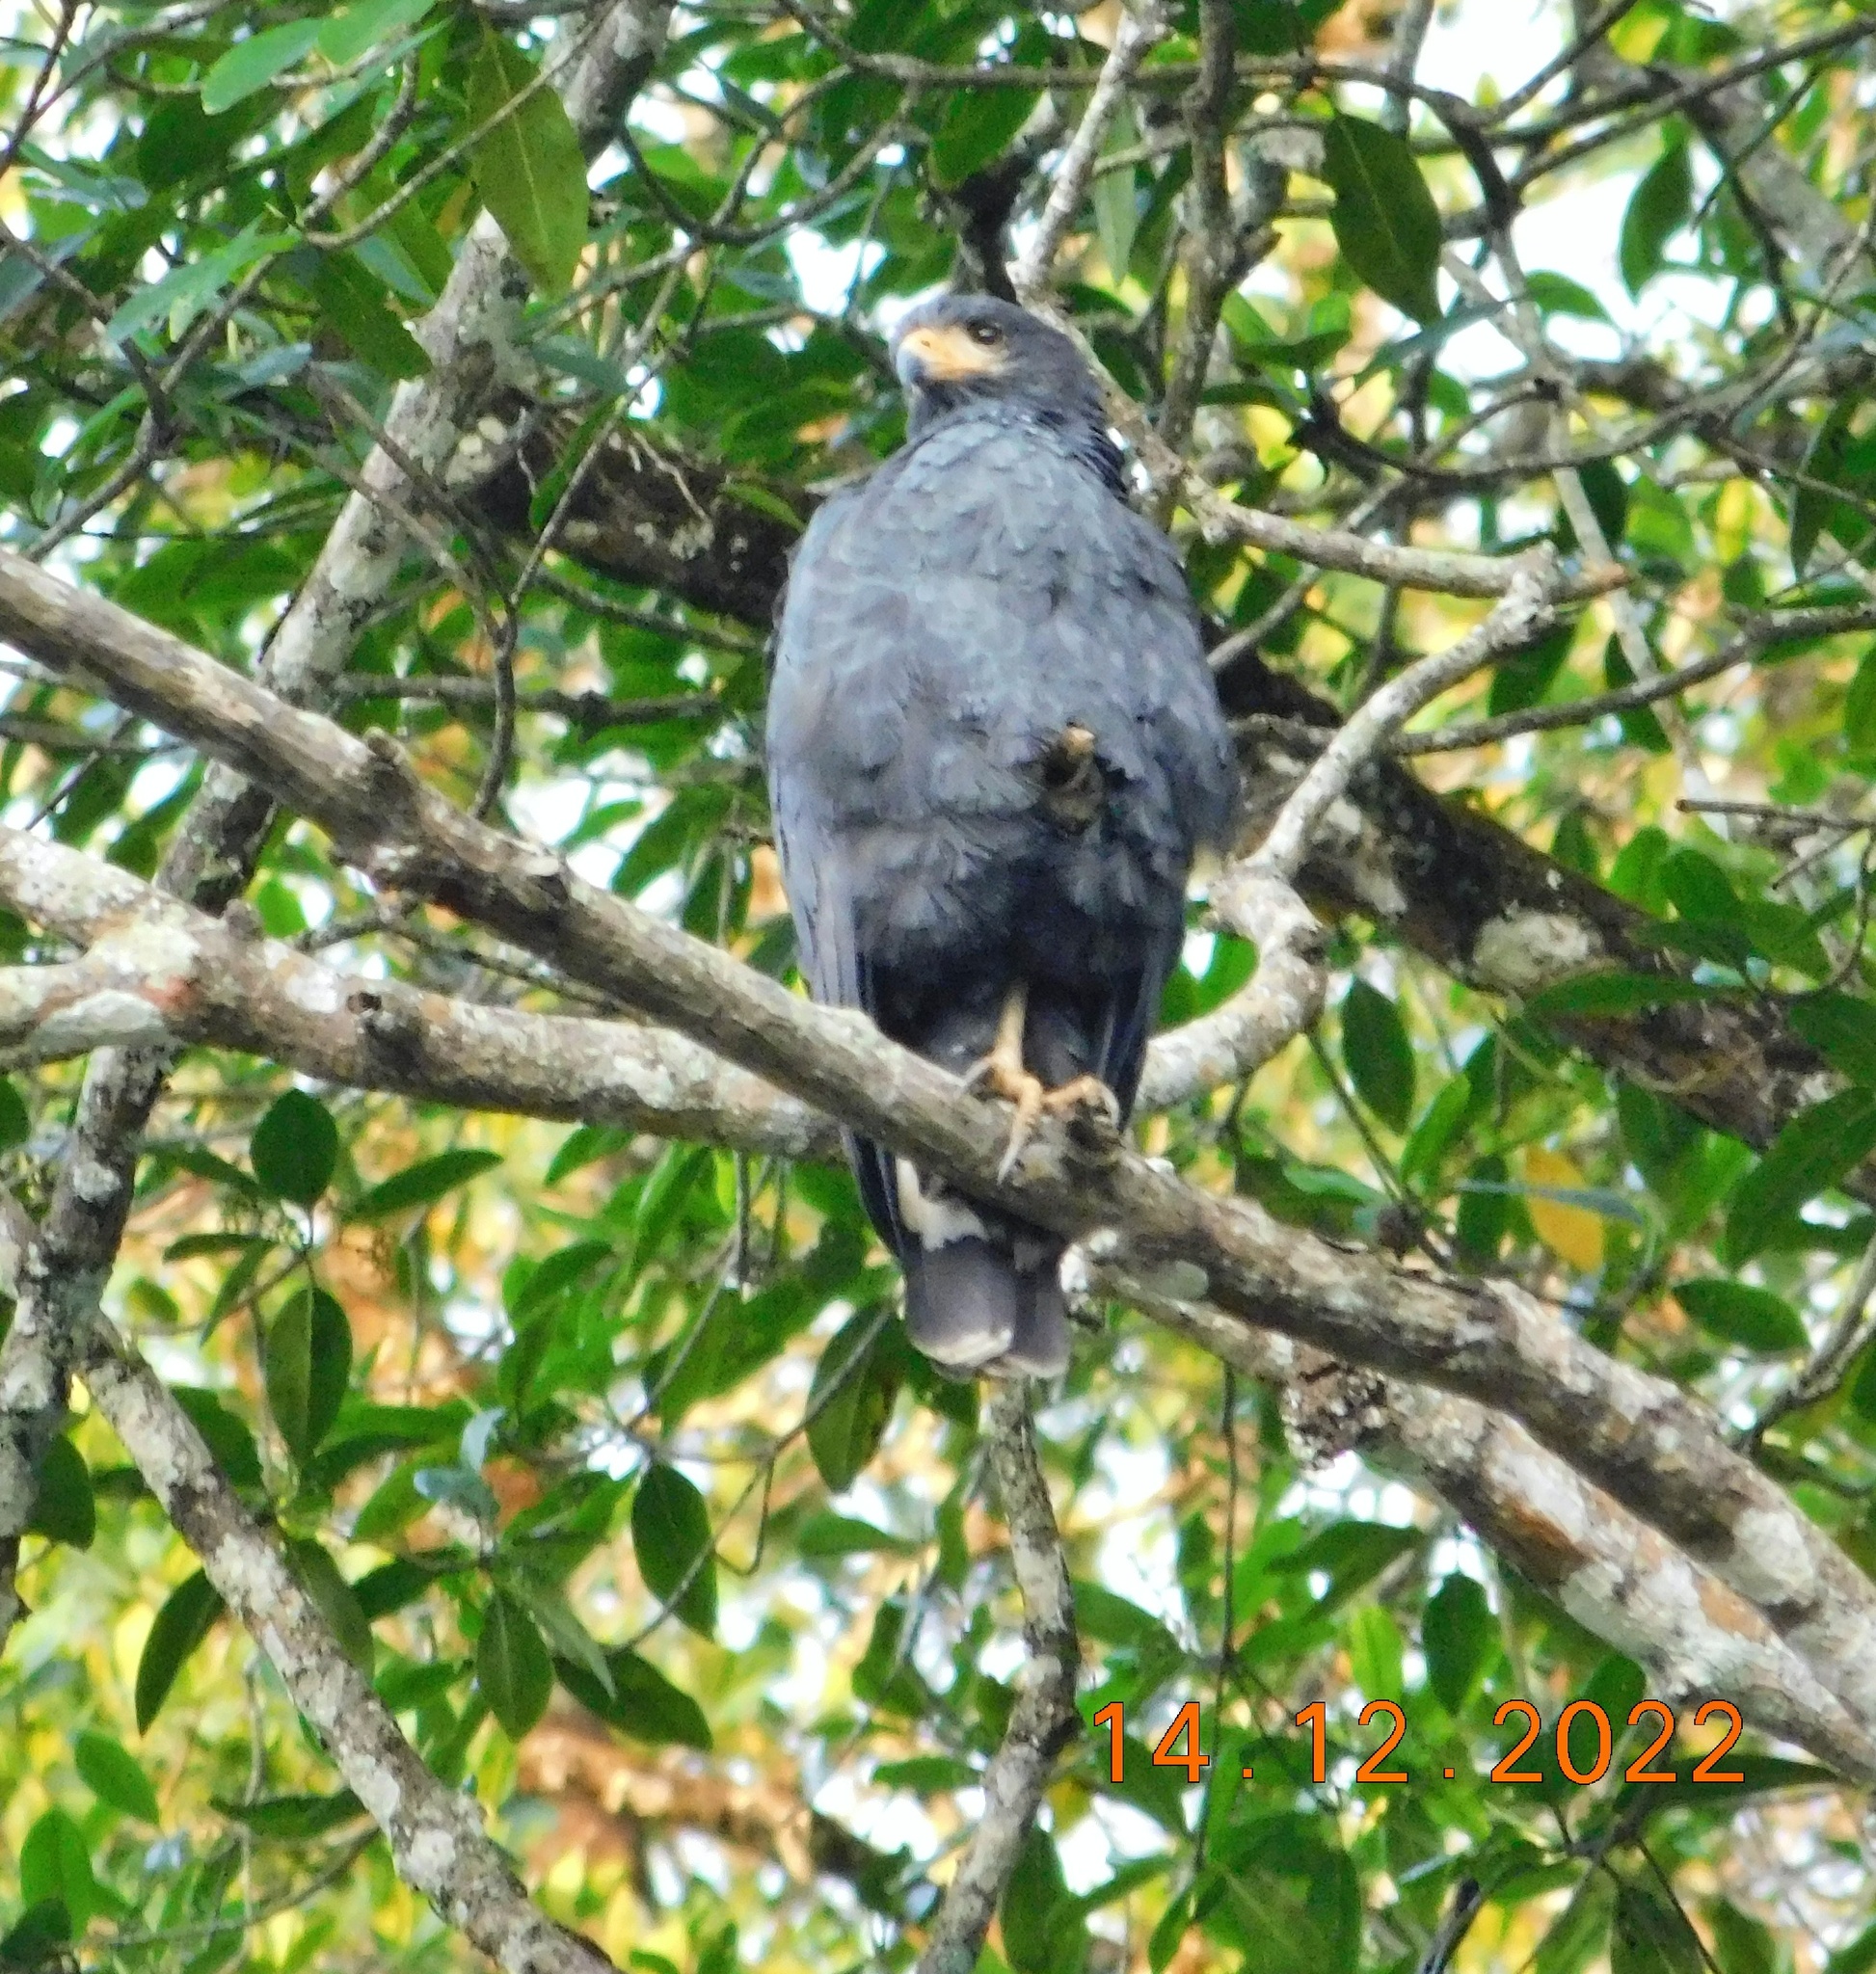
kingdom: Animalia
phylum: Chordata
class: Aves
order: Accipitriformes
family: Accipitridae
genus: Buteogallus
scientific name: Buteogallus anthracinus
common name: Common black hawk
